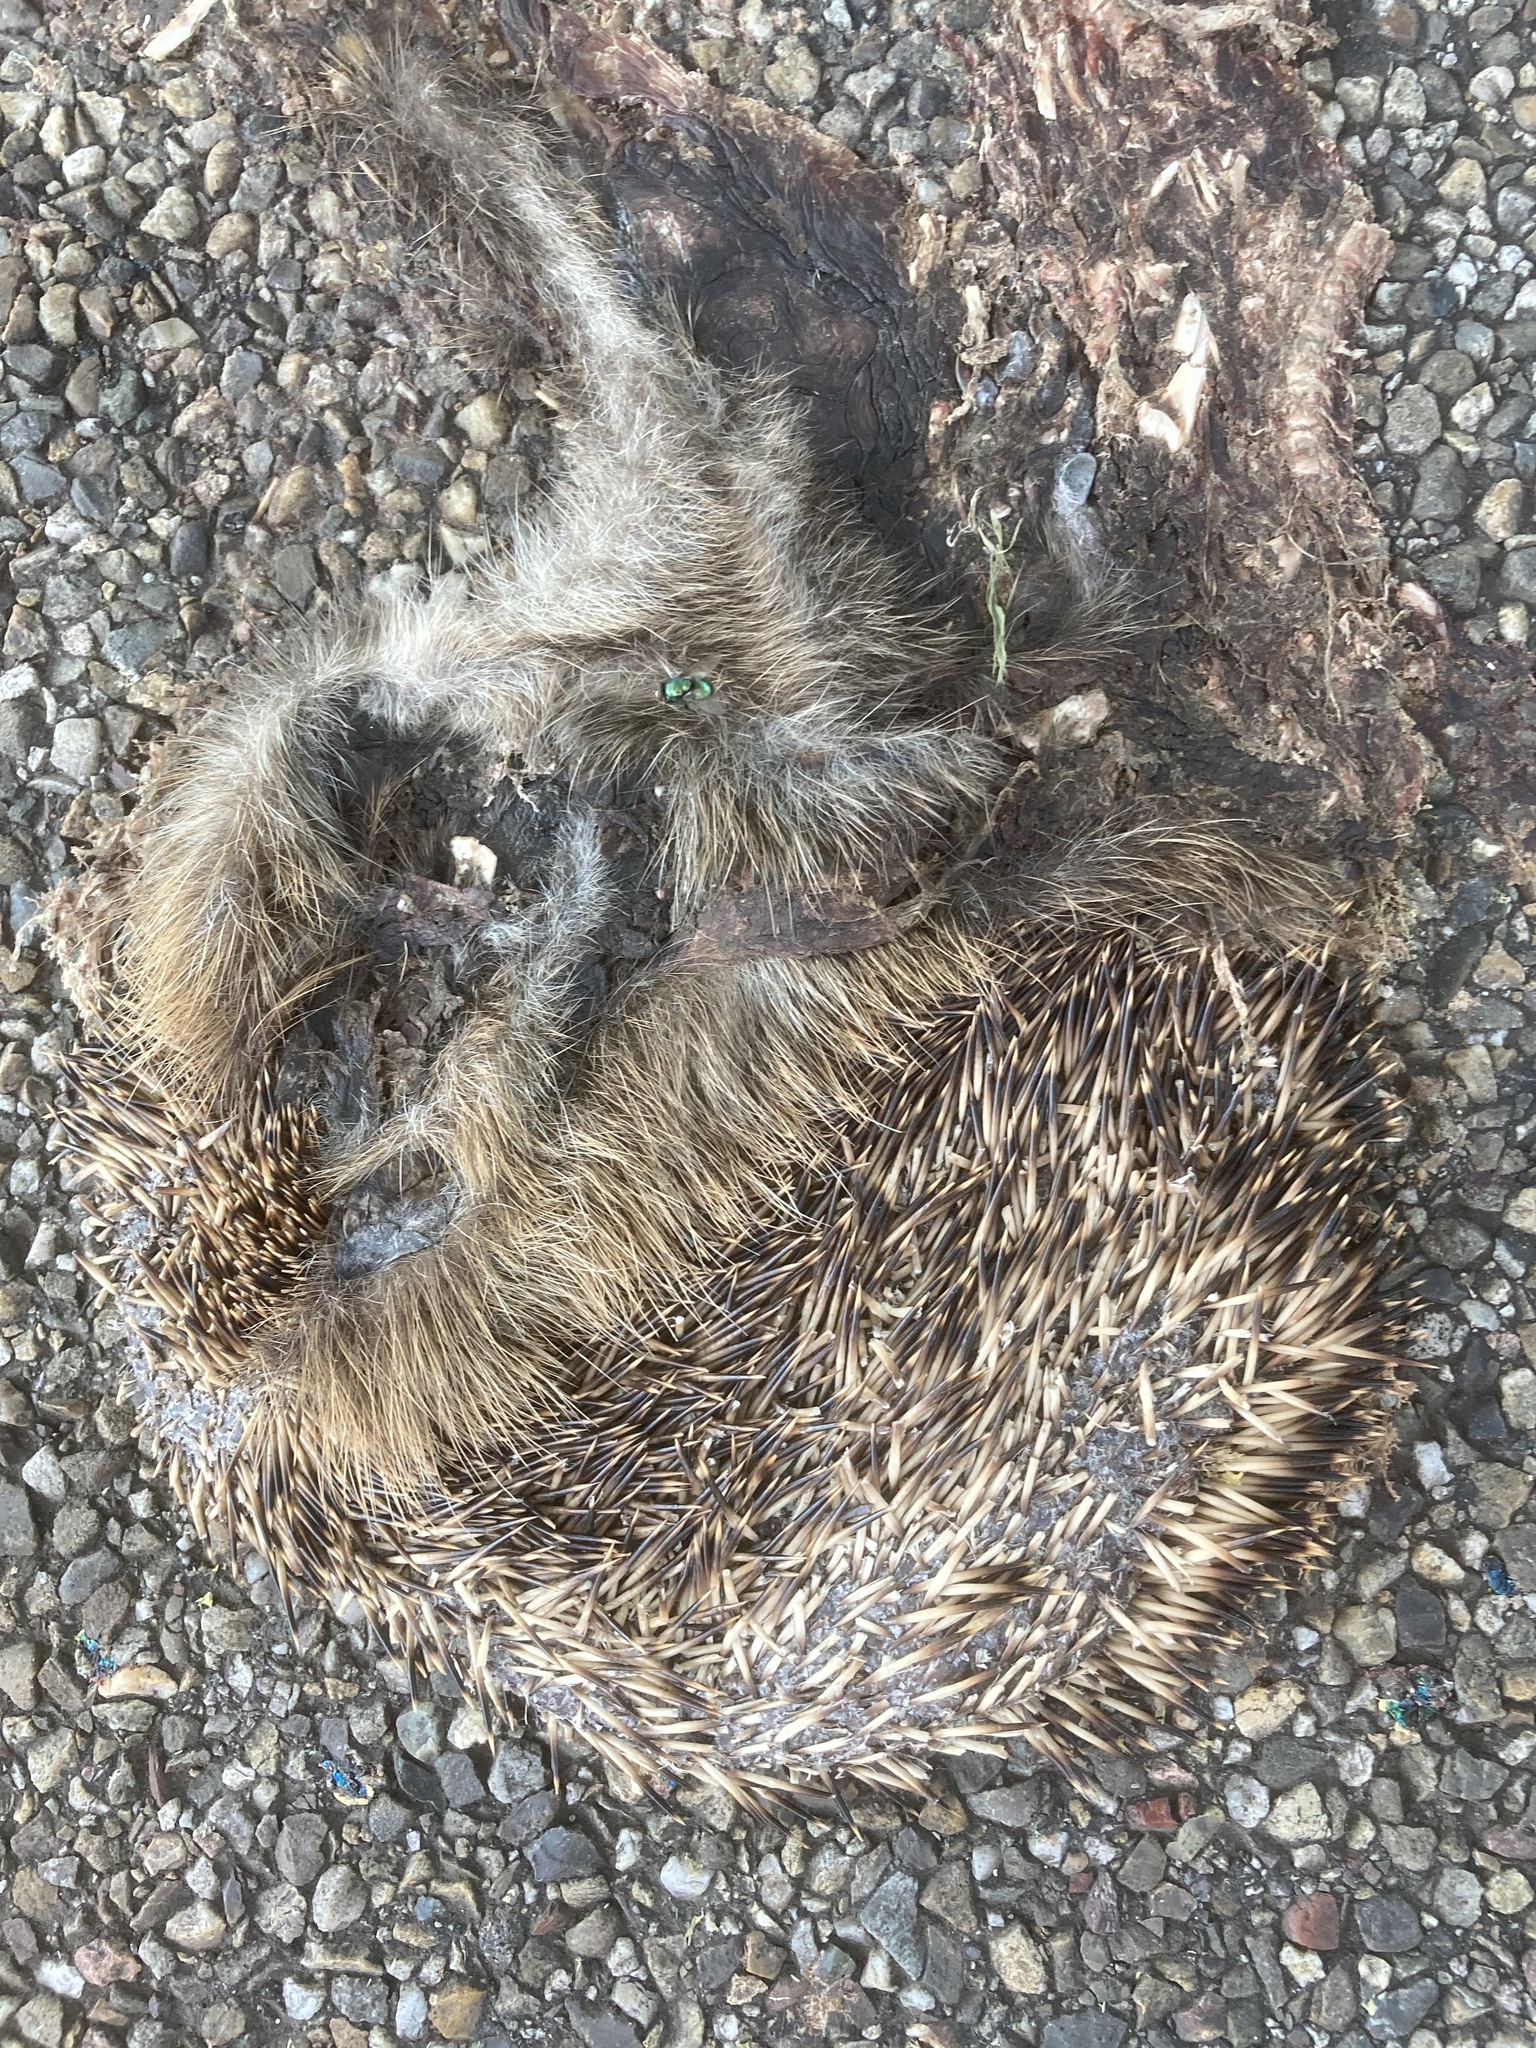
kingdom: Animalia
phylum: Chordata
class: Mammalia
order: Erinaceomorpha
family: Erinaceidae
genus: Erinaceus
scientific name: Erinaceus europaeus
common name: West european hedgehog
